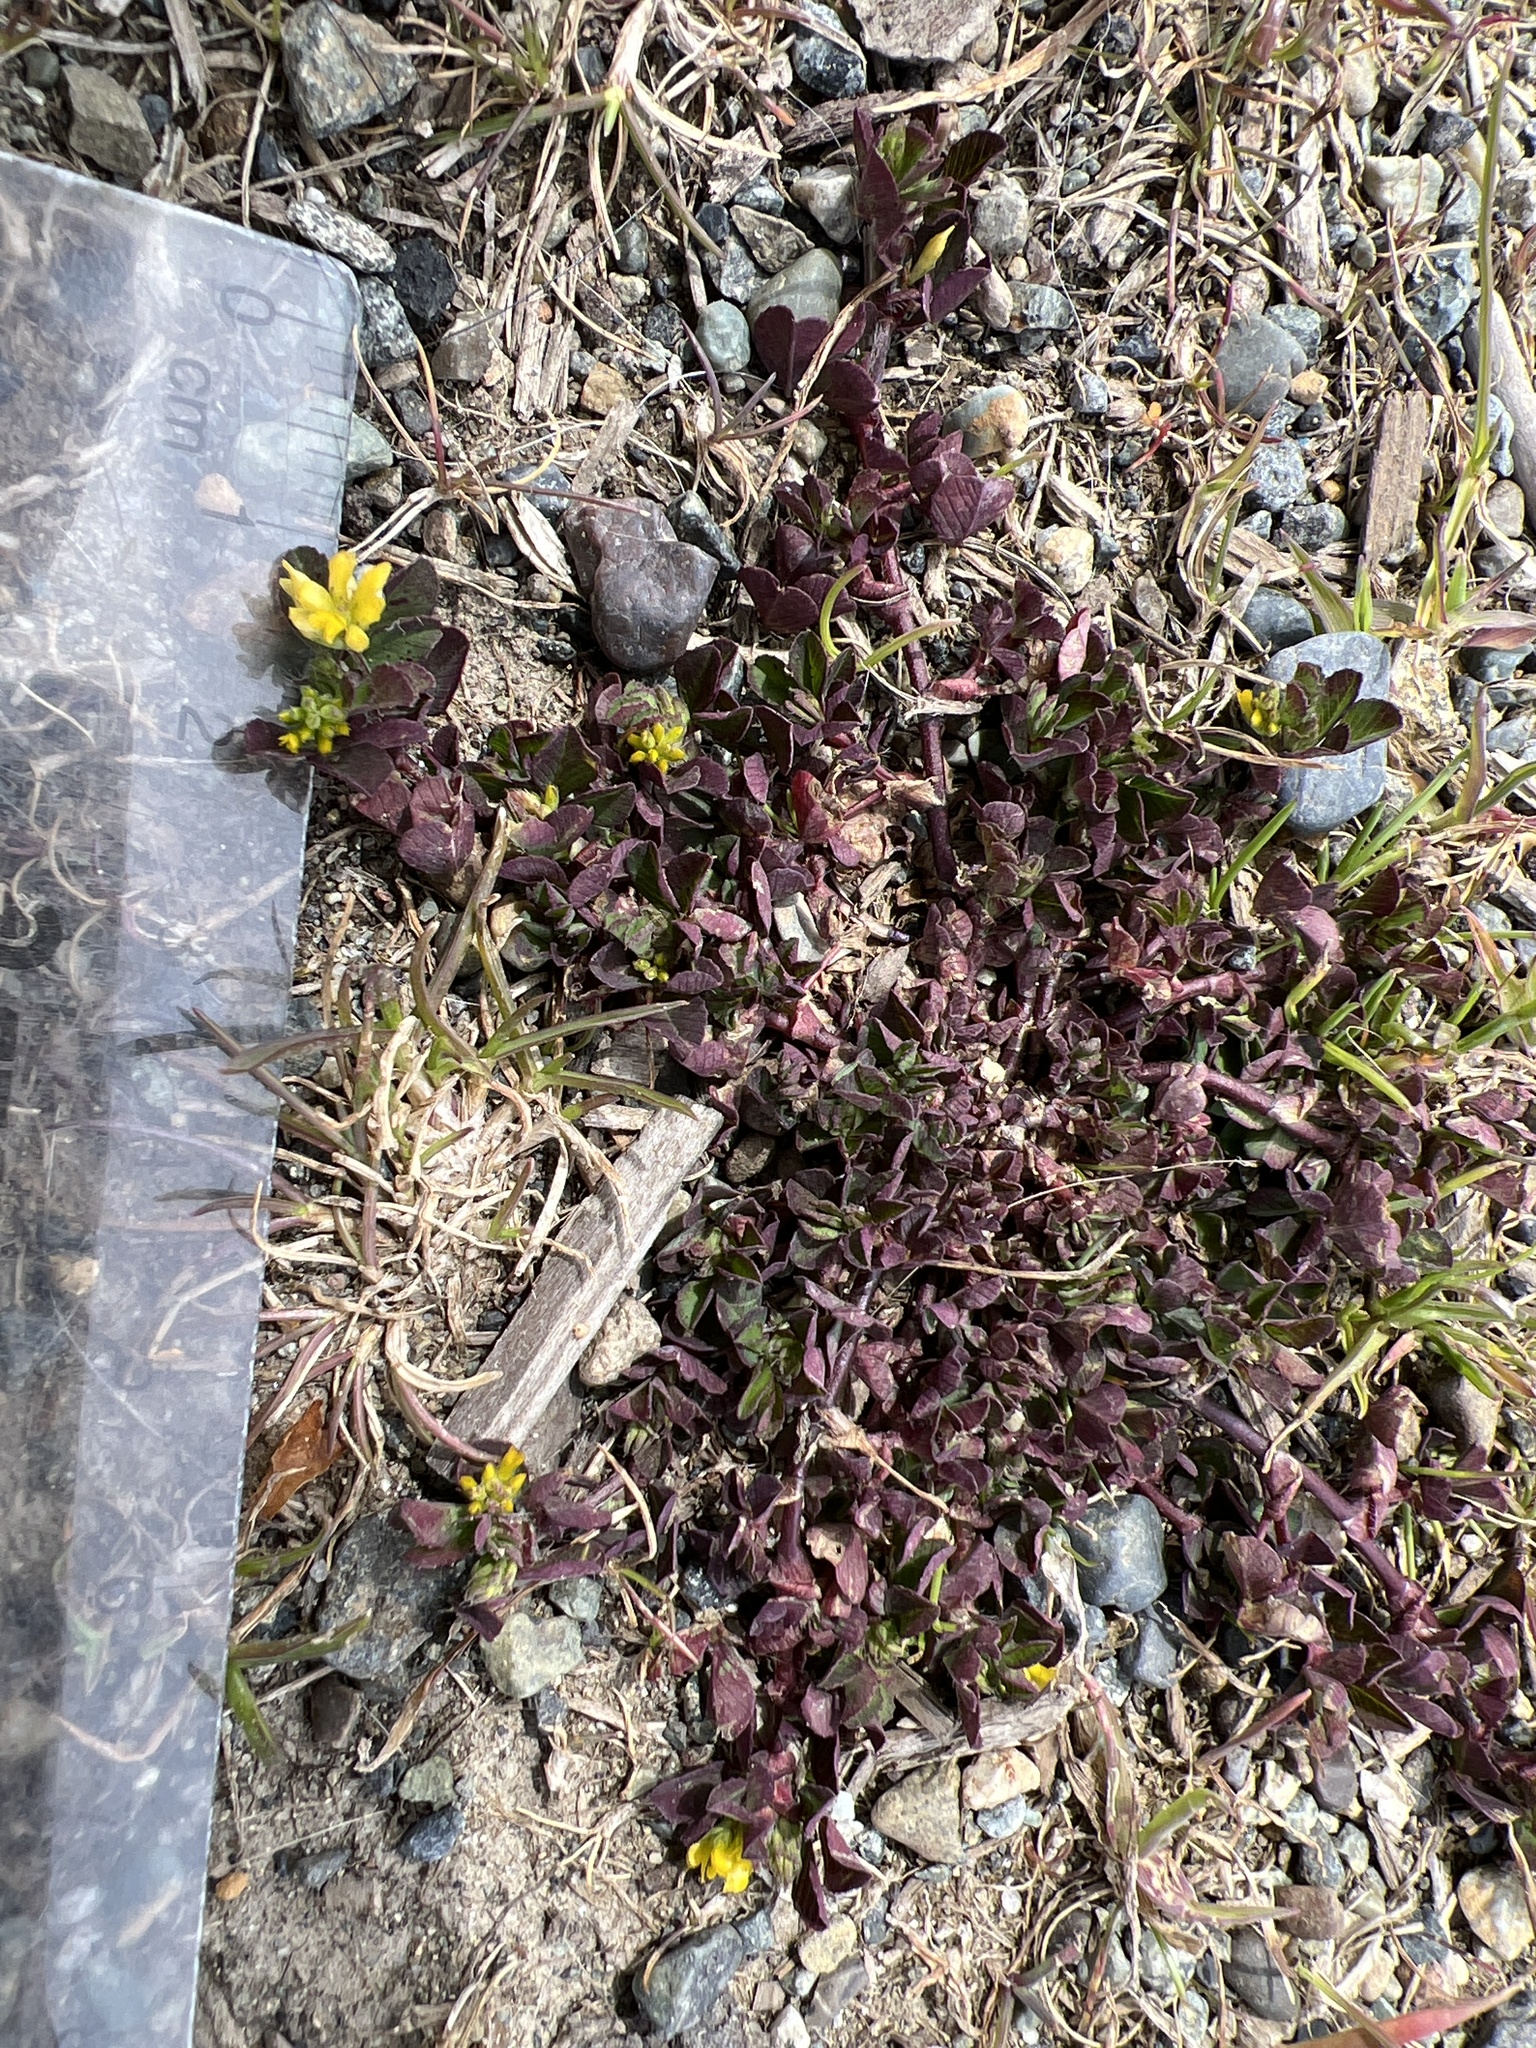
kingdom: Plantae
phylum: Tracheophyta
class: Magnoliopsida
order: Fabales
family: Fabaceae
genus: Trifolium
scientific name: Trifolium dubium
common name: Suckling clover
